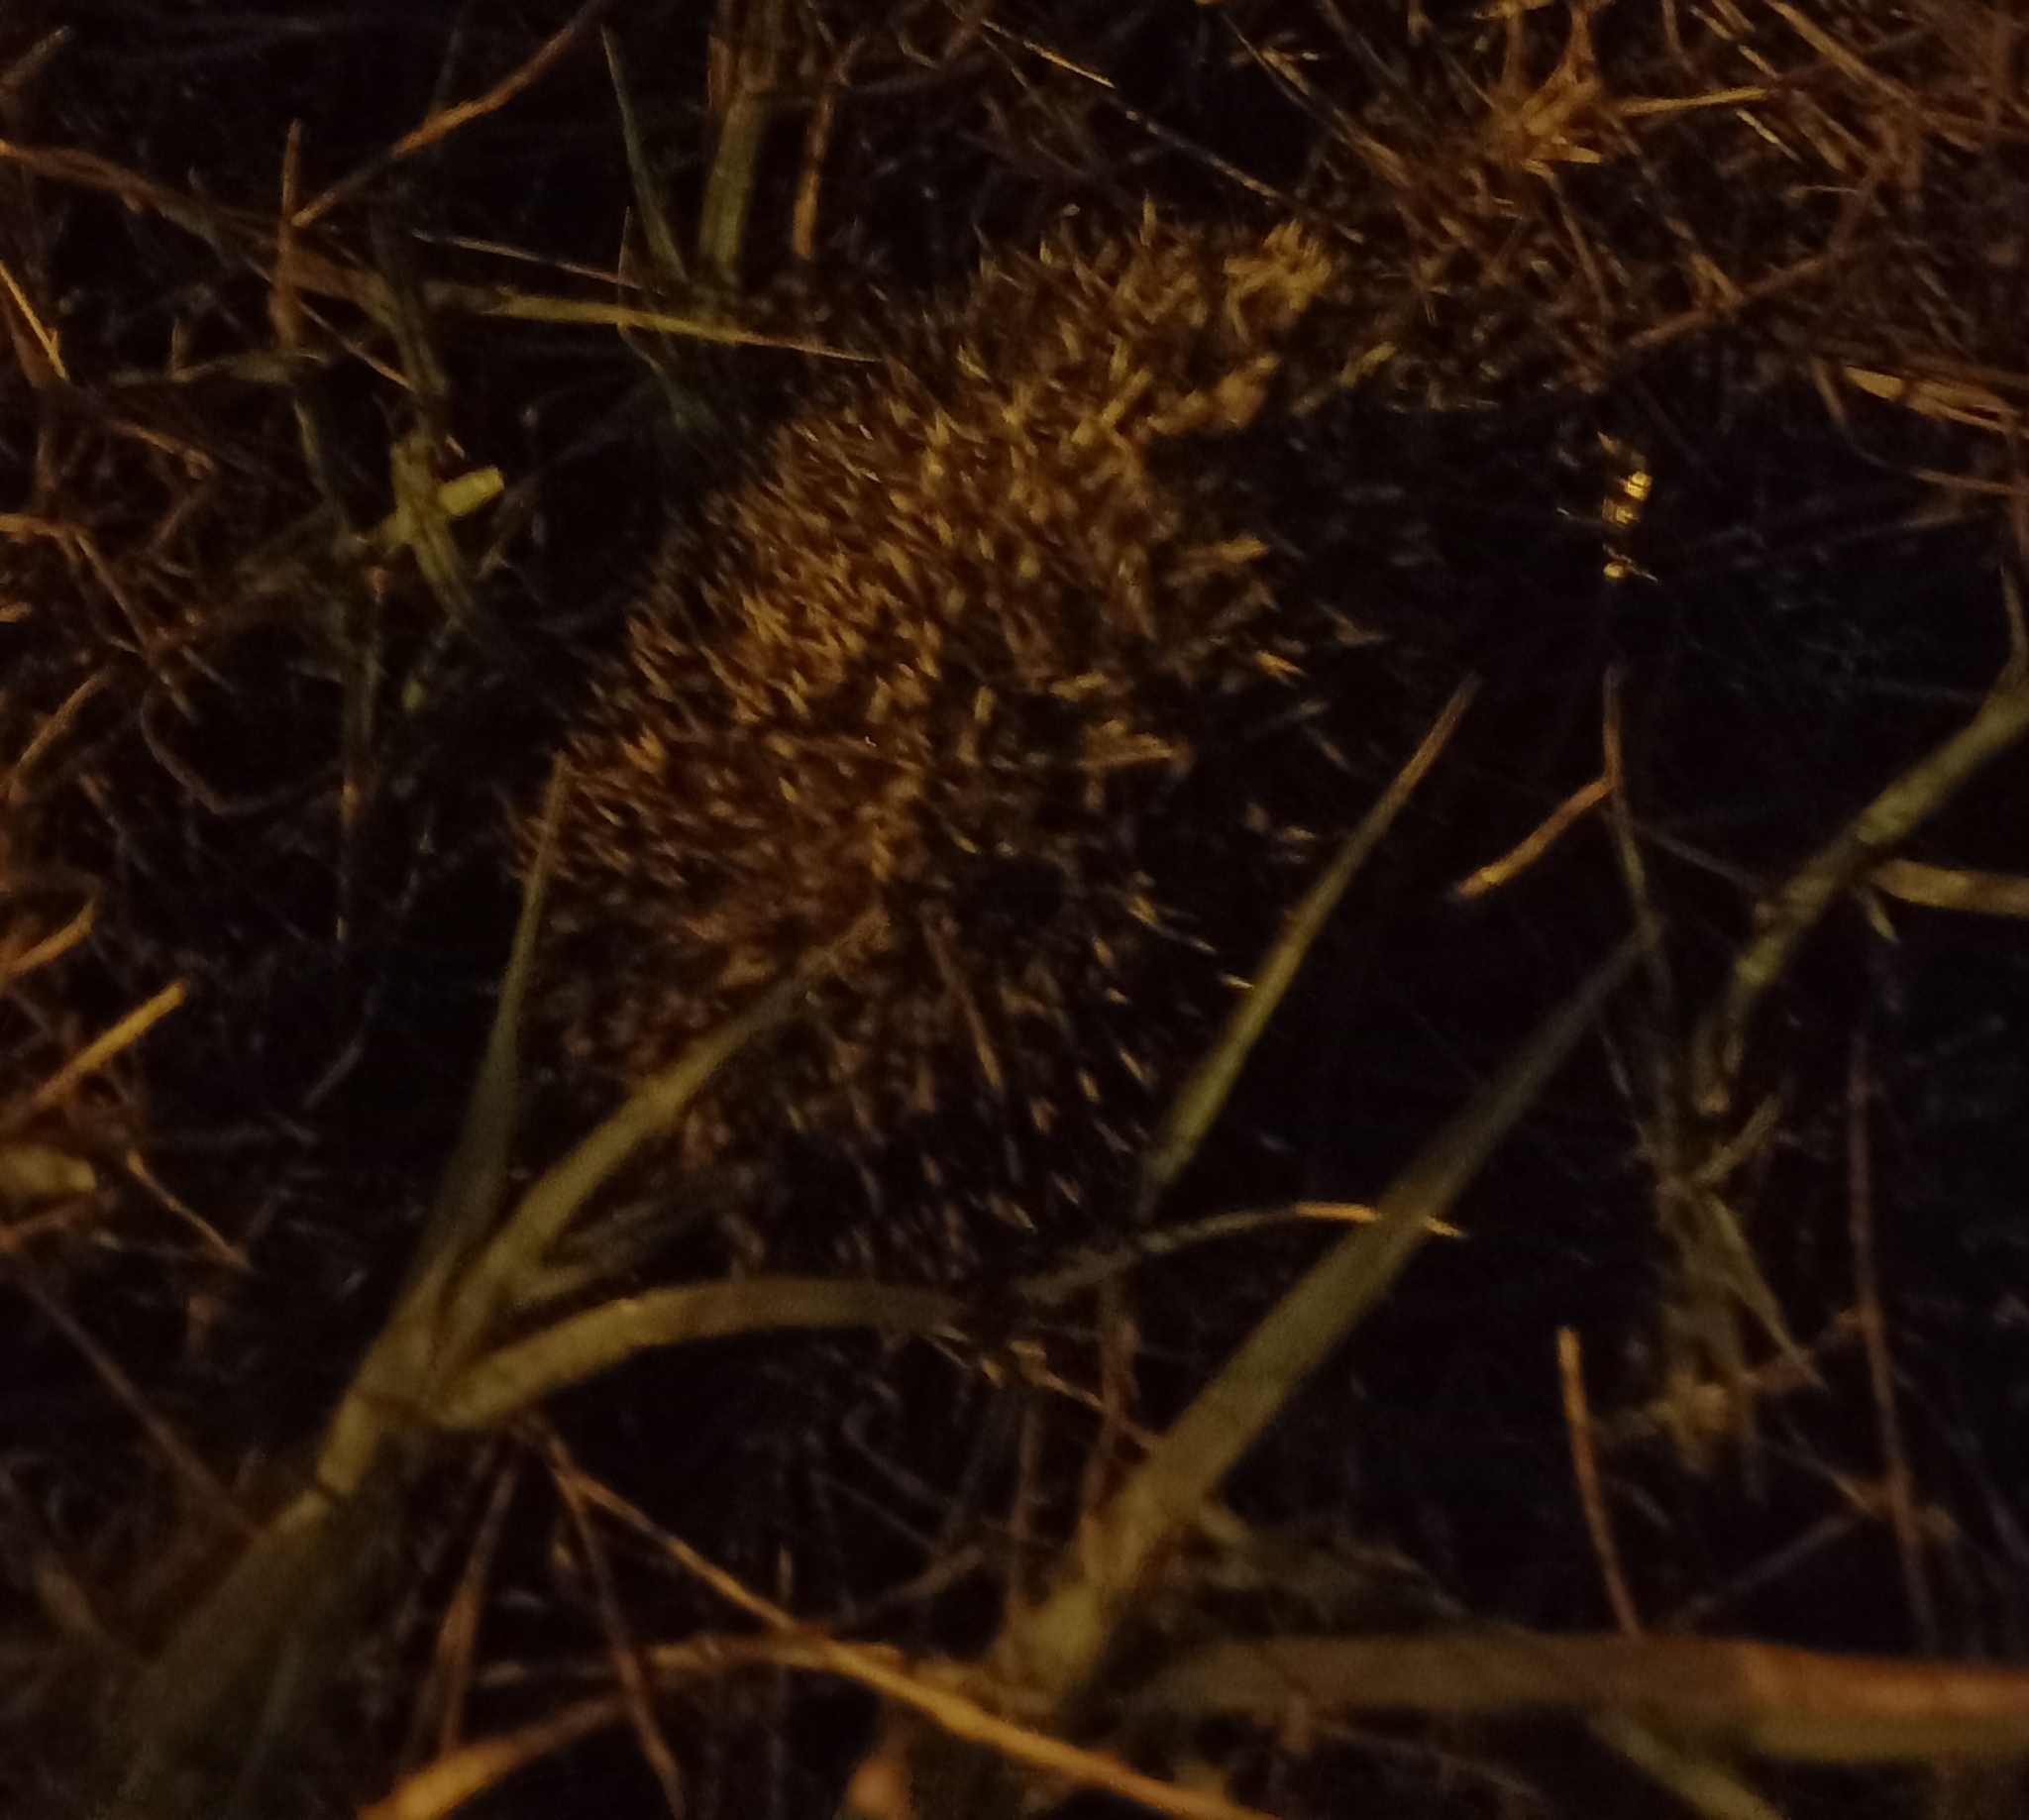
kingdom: Animalia
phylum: Chordata
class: Mammalia
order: Erinaceomorpha
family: Erinaceidae
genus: Erinaceus
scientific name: Erinaceus europaeus
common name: West european hedgehog
